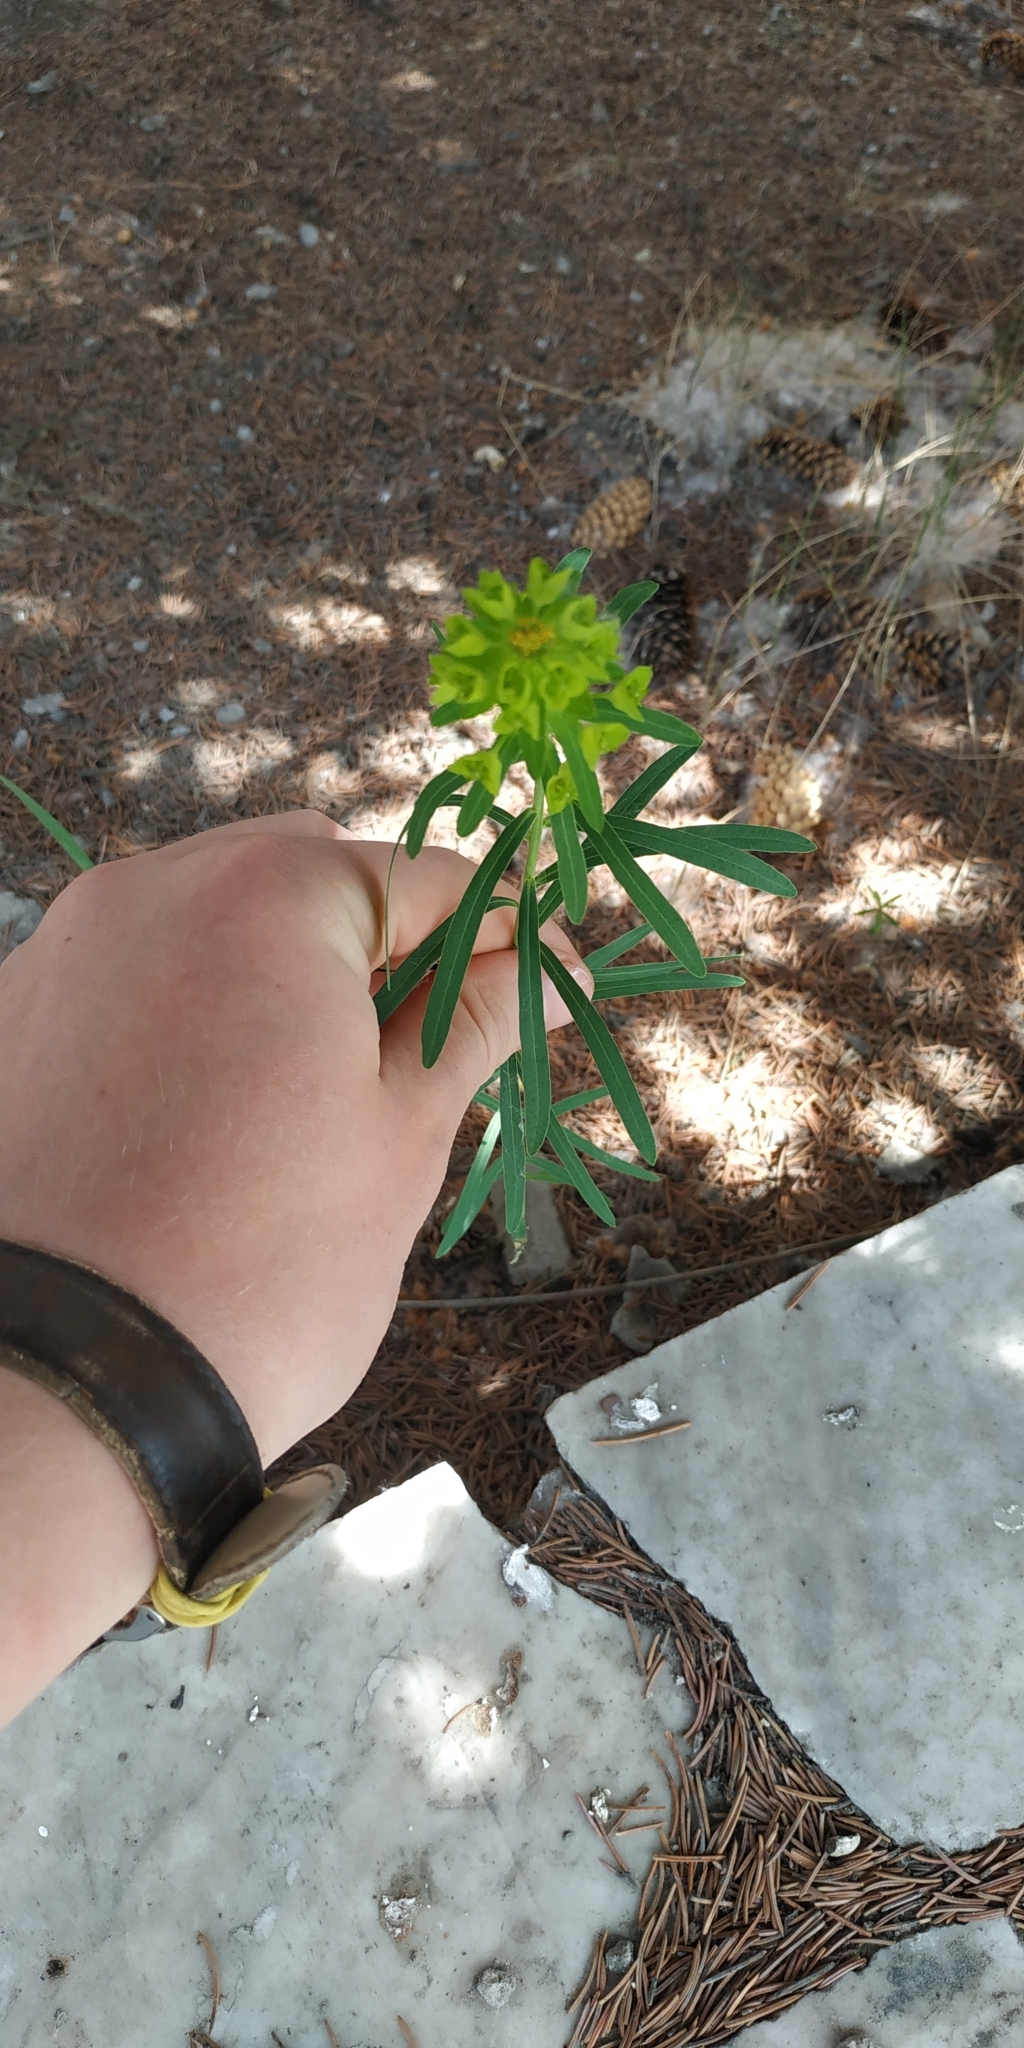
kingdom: Plantae
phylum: Tracheophyta
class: Magnoliopsida
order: Malpighiales
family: Euphorbiaceae
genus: Euphorbia
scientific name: Euphorbia virgata
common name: Leafy spurge
